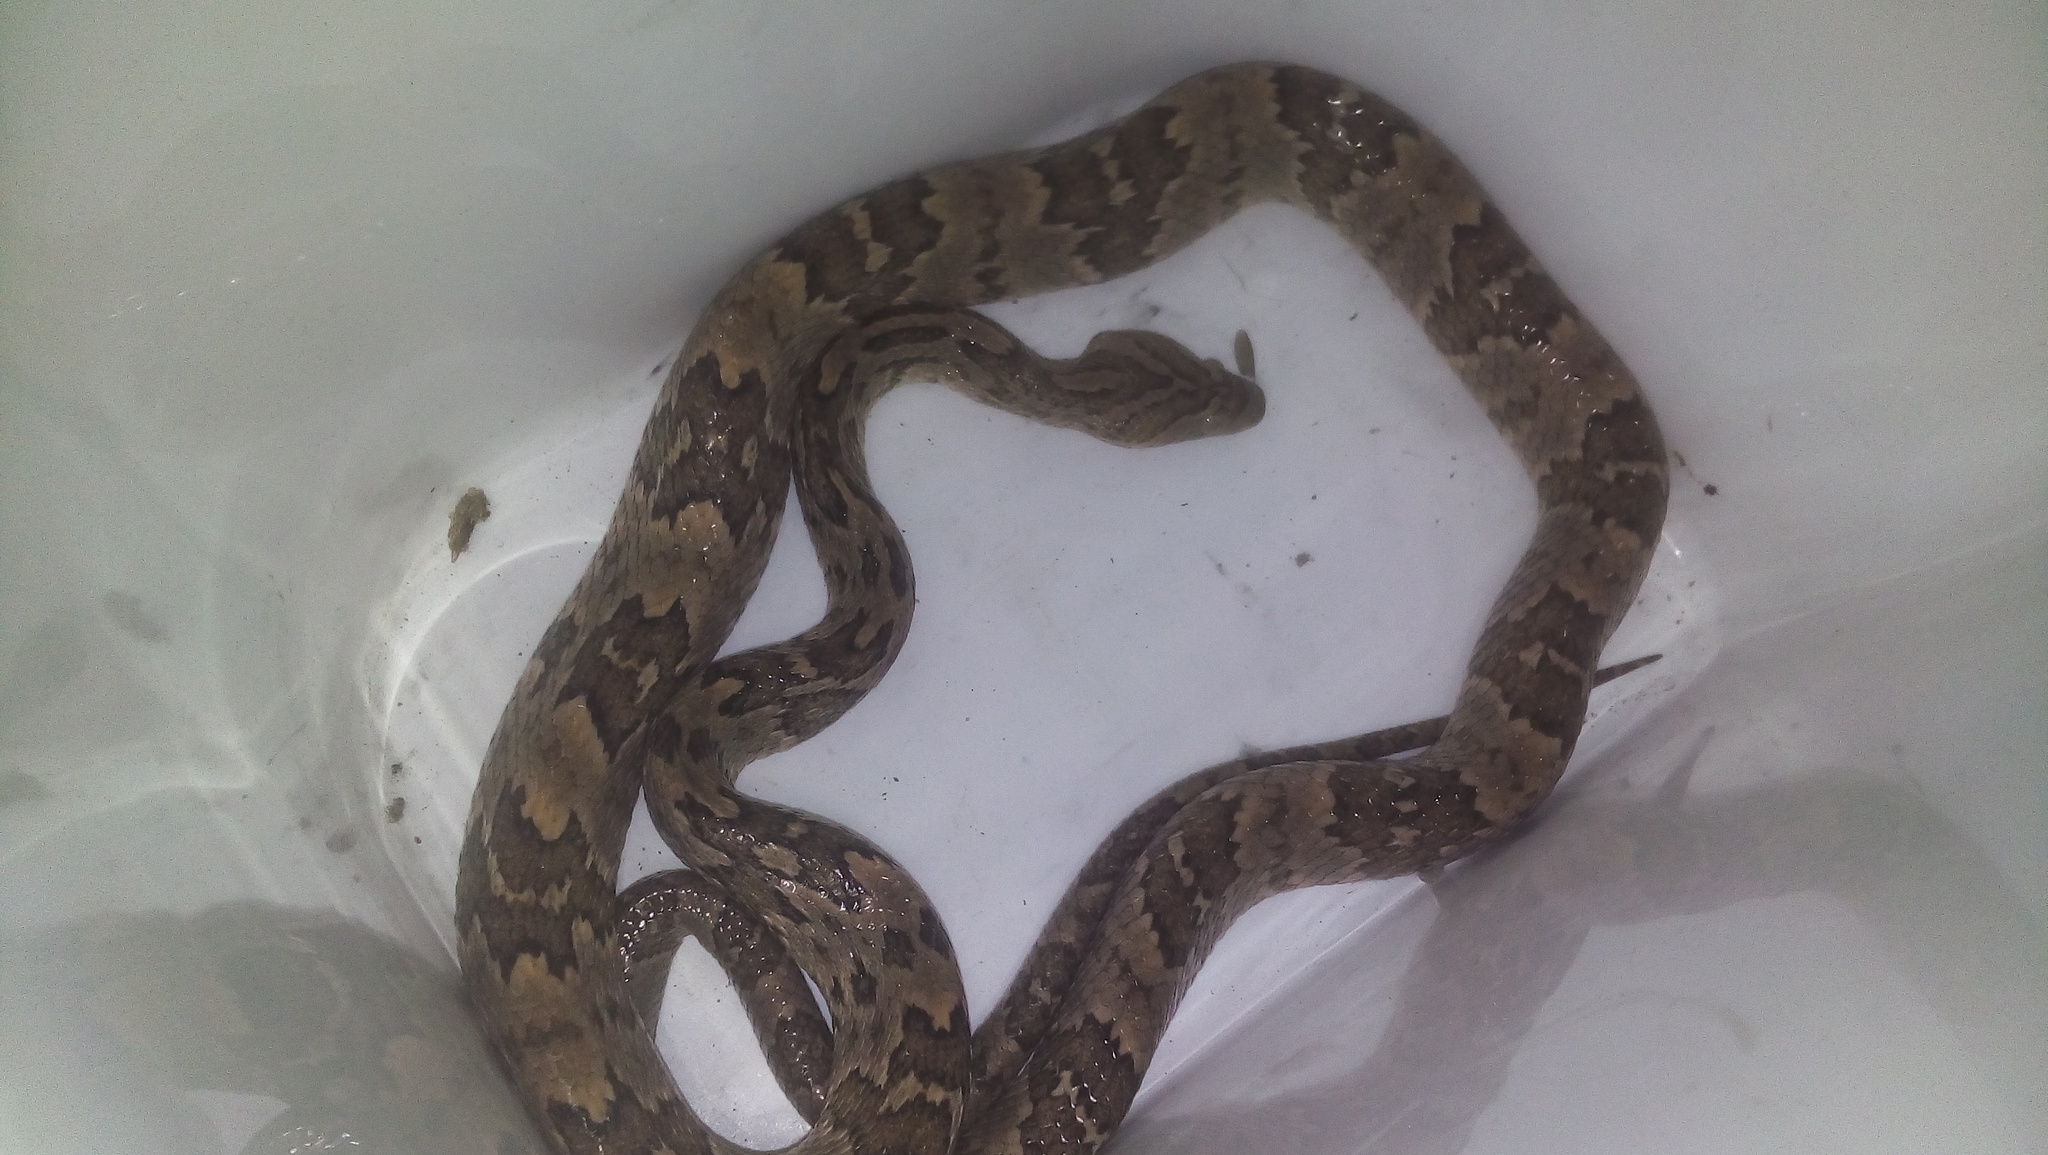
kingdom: Animalia
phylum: Chordata
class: Squamata
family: Colubridae
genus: Trimorphodon
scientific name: Trimorphodon biscutatus
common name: Costal lyre snake
